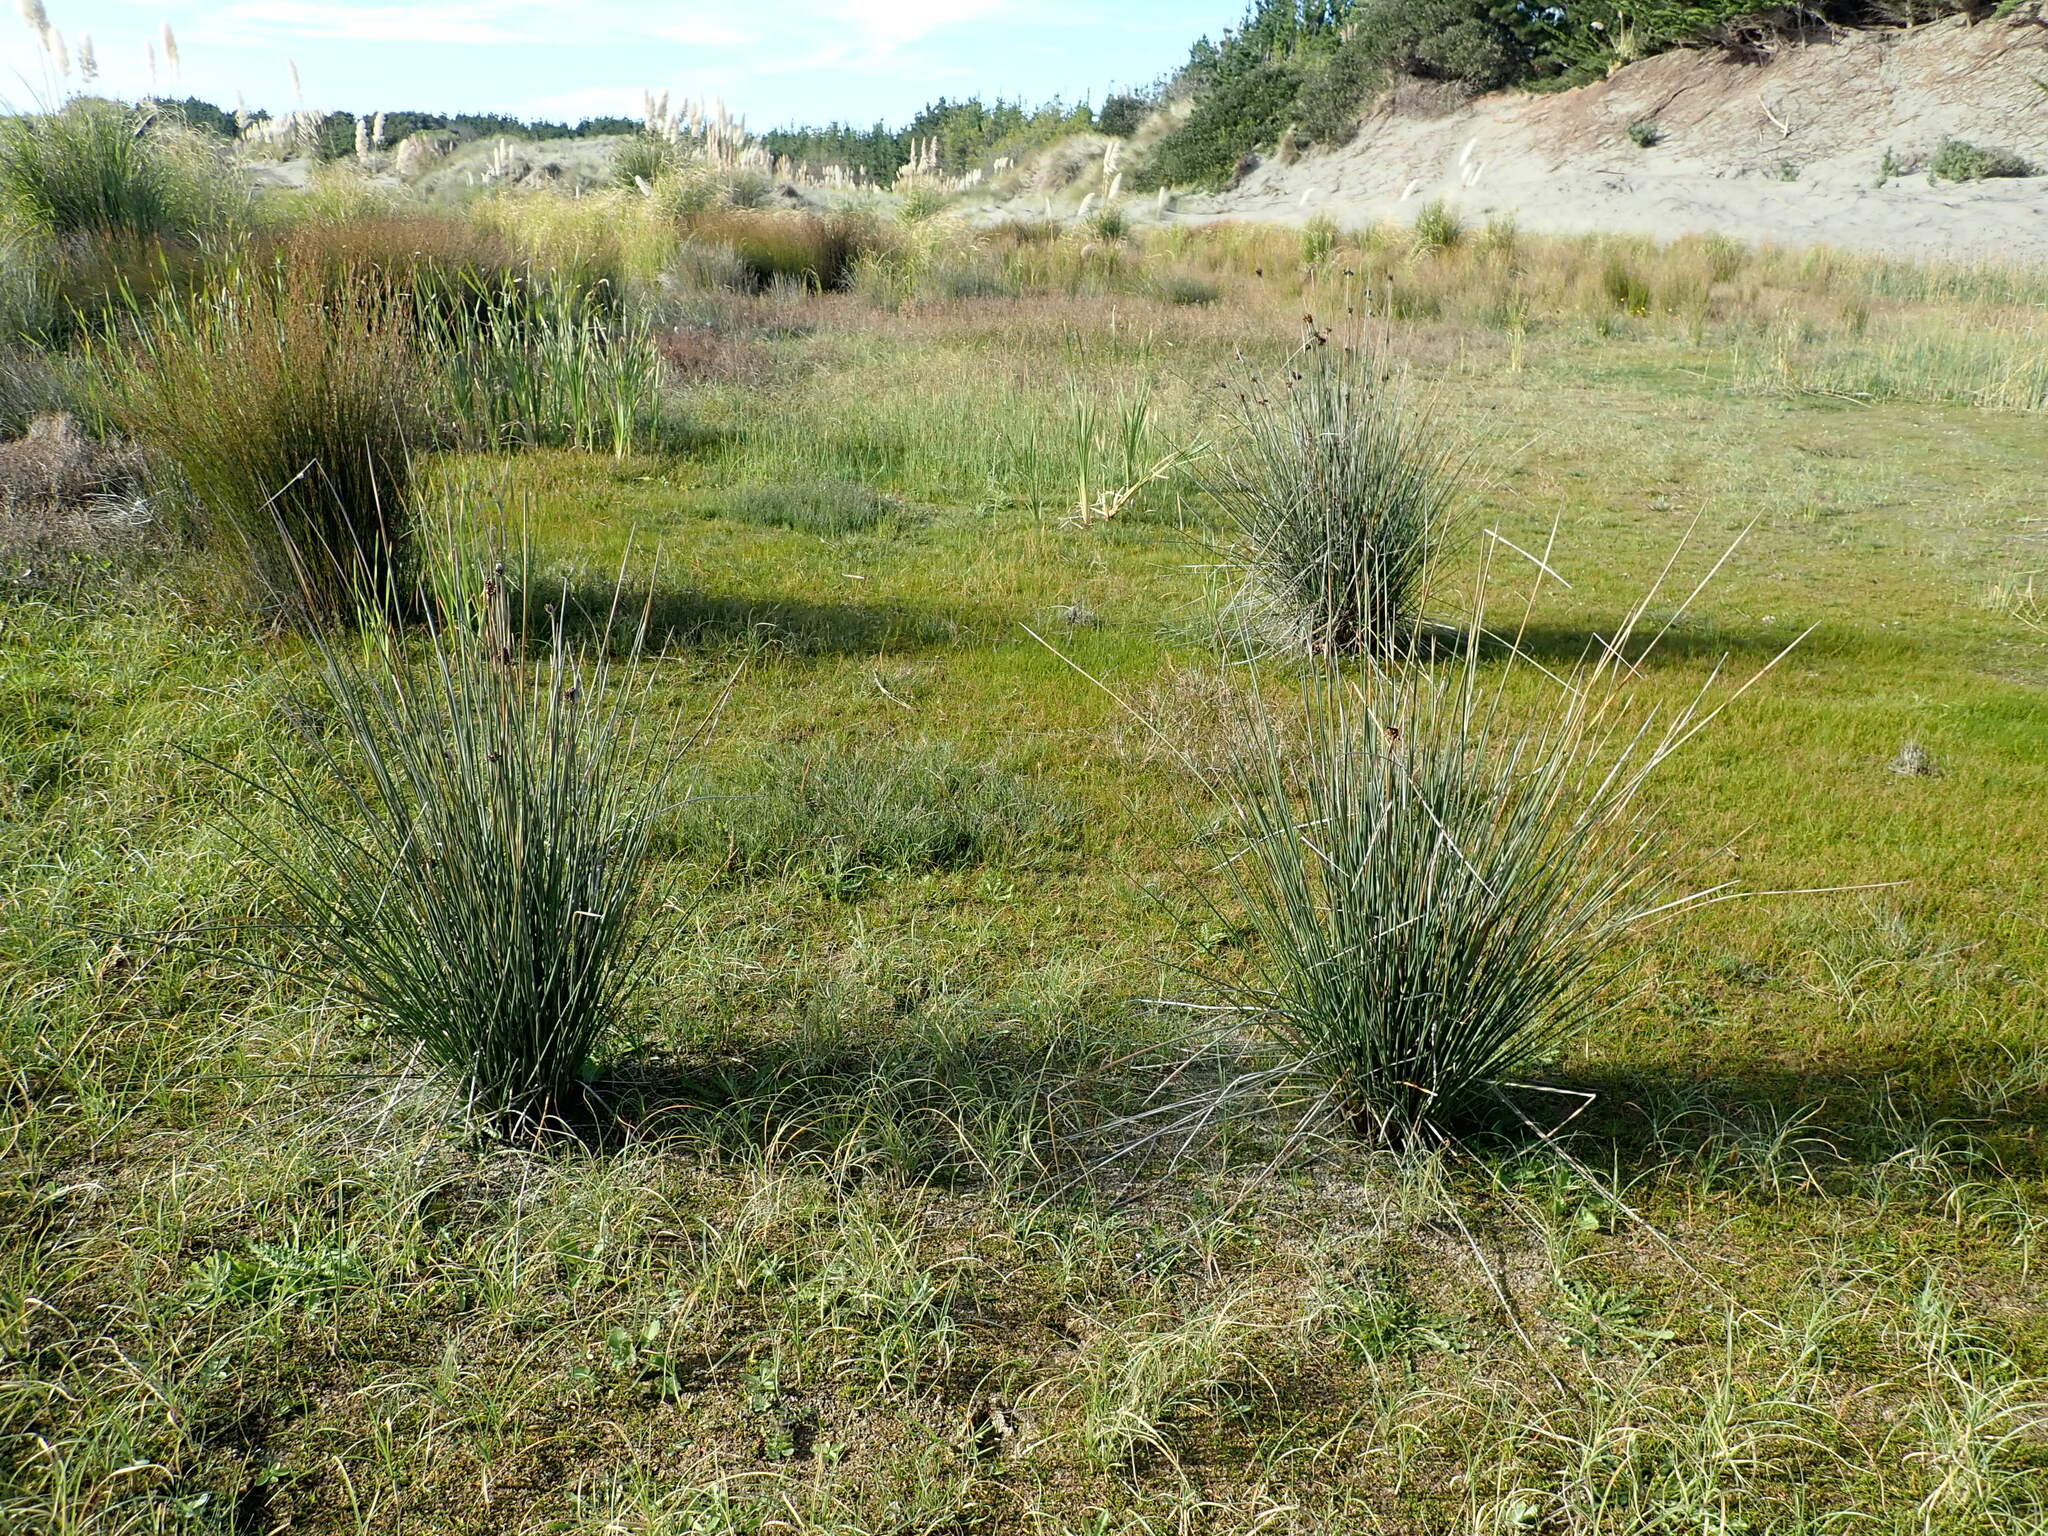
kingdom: Plantae
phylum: Tracheophyta
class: Liliopsida
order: Poales
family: Juncaceae
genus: Juncus
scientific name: Juncus acutus
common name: Sharp rush
